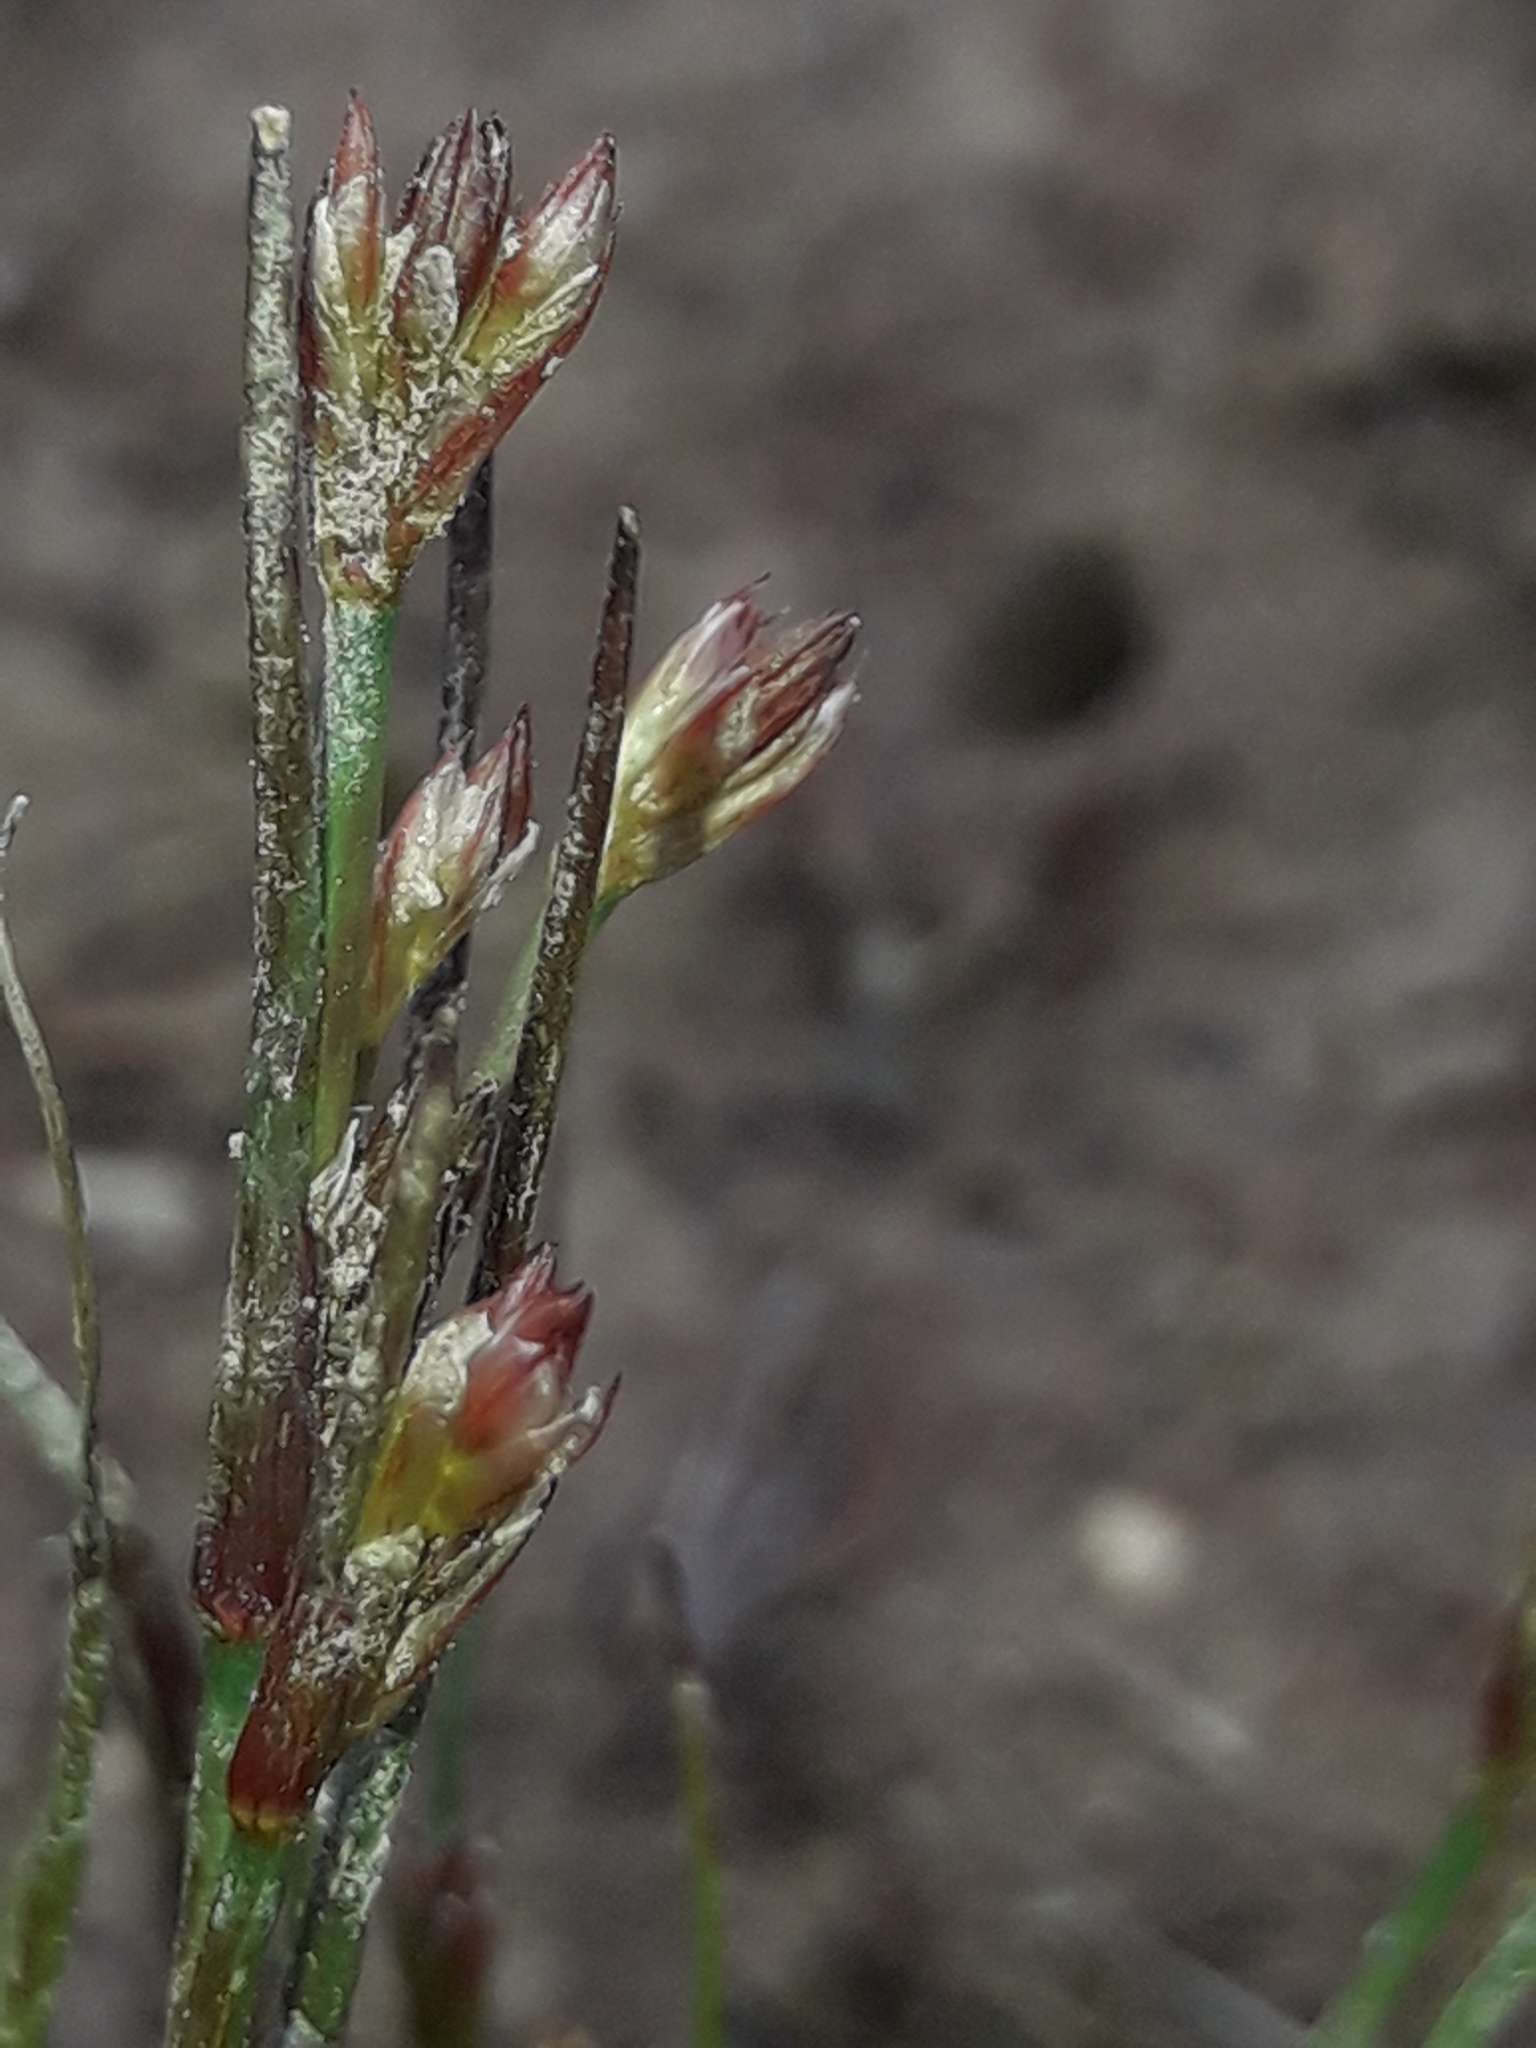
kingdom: Plantae
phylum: Tracheophyta
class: Liliopsida
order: Poales
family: Juncaceae
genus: Juncus
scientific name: Juncus bulbosus
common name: Bulbous rush
